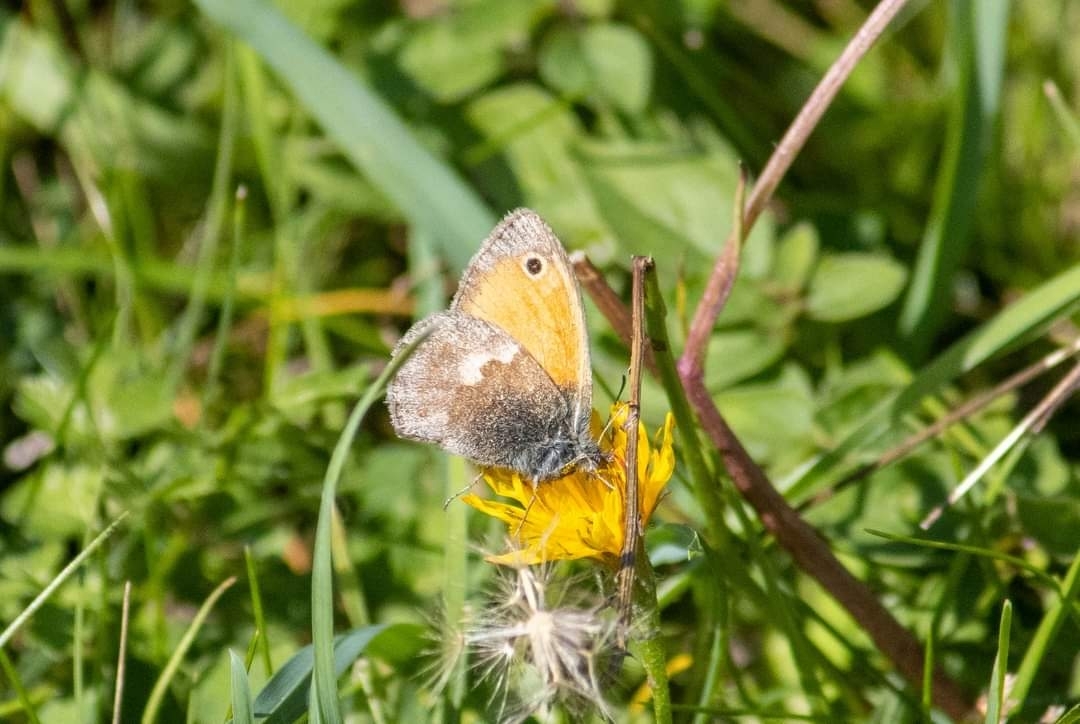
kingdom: Animalia
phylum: Arthropoda
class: Insecta
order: Lepidoptera
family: Nymphalidae
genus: Coenonympha
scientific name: Coenonympha pamphilus
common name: Small heath
